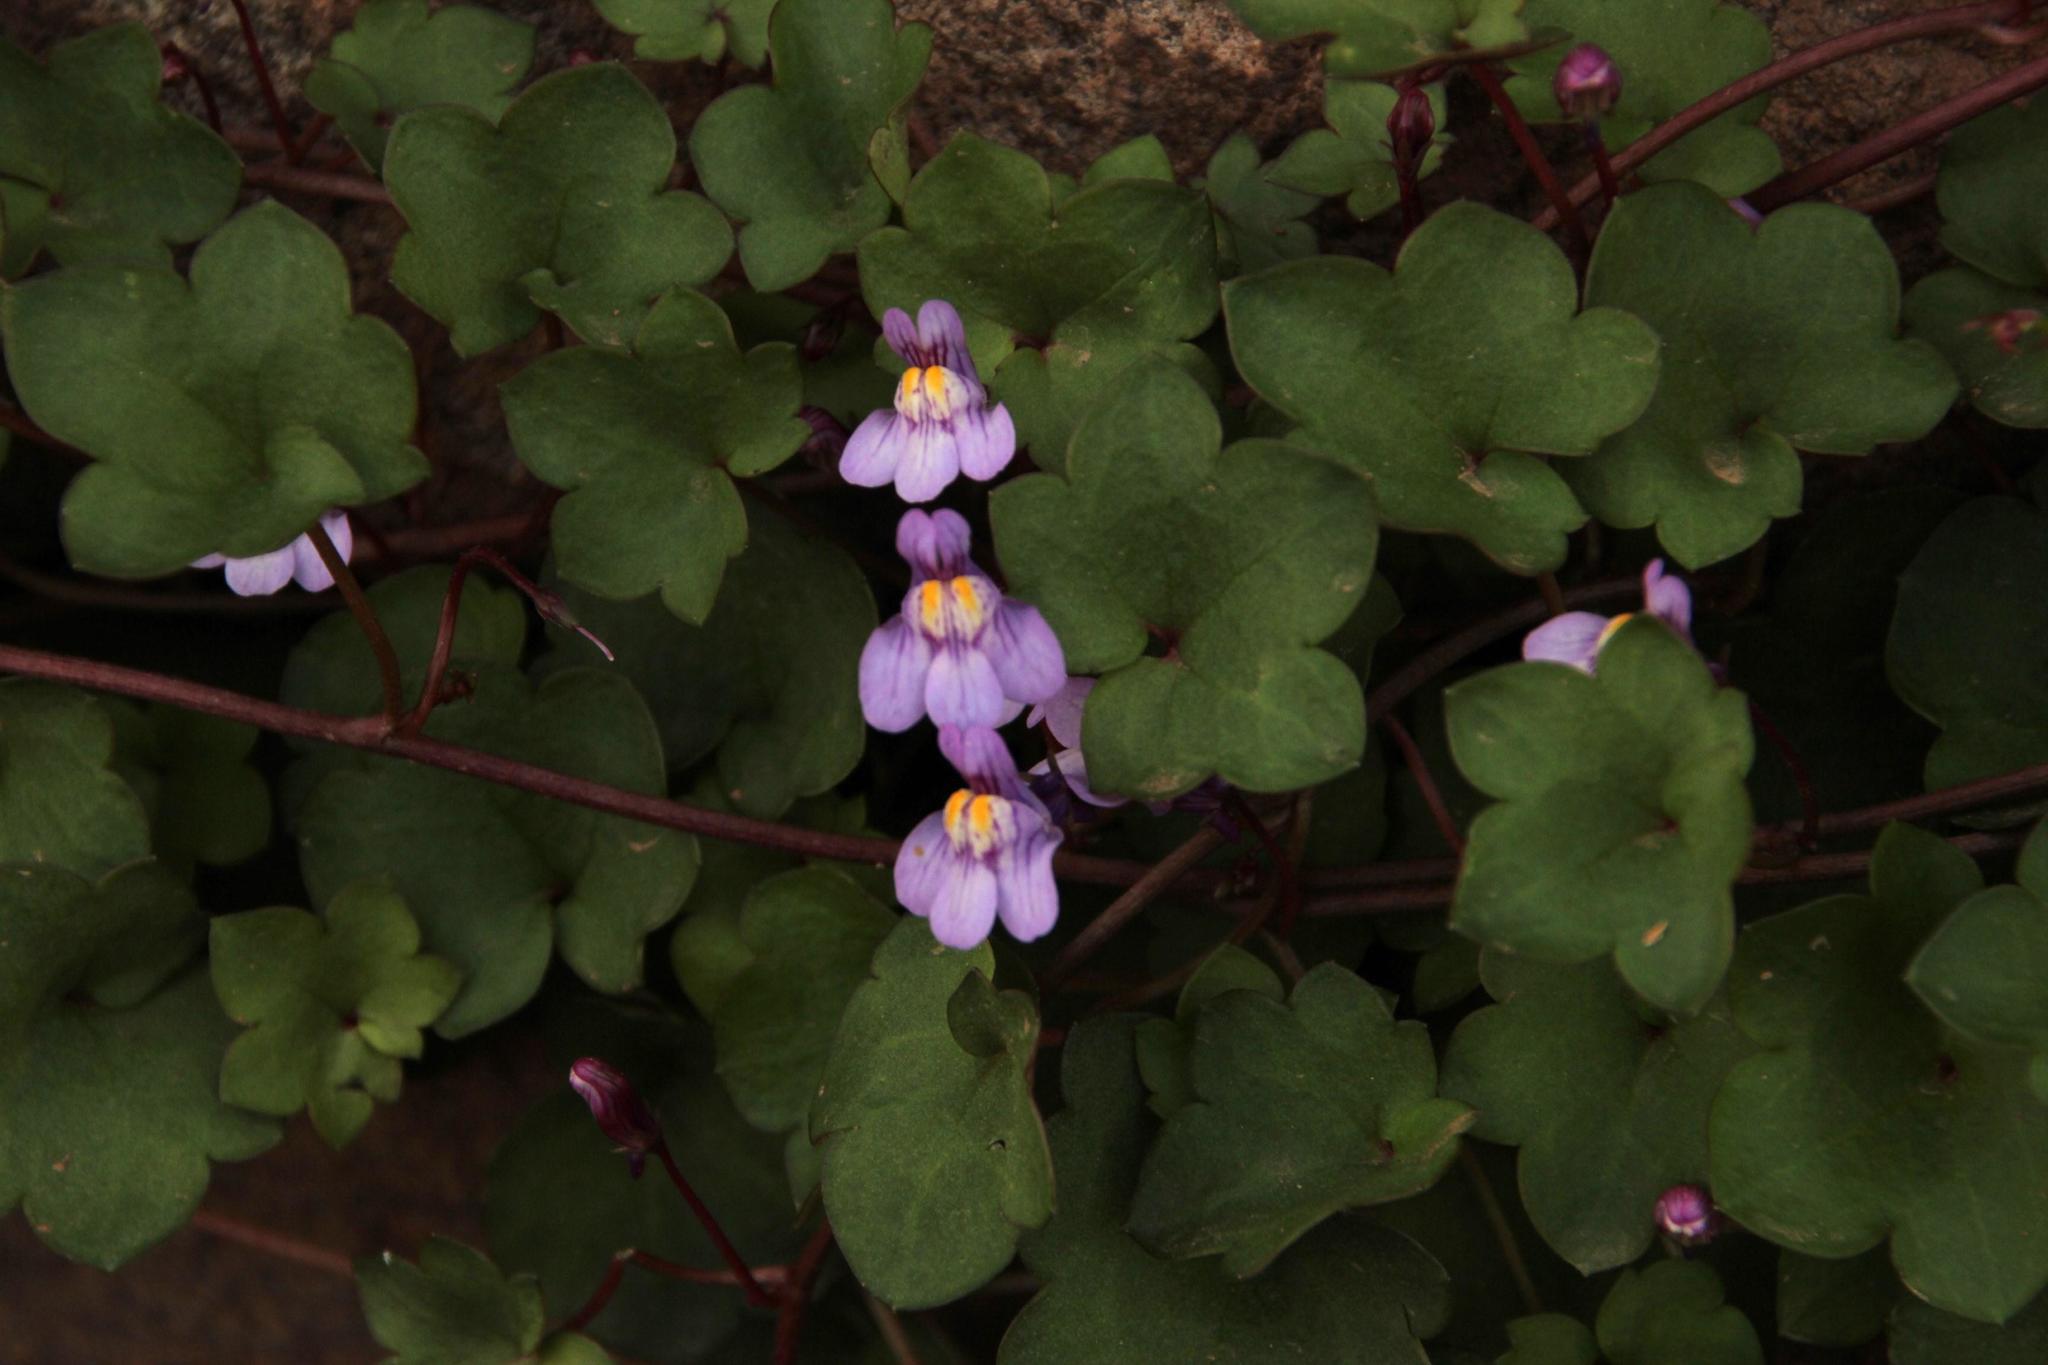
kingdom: Plantae
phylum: Tracheophyta
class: Magnoliopsida
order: Lamiales
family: Plantaginaceae
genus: Cymbalaria
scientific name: Cymbalaria muralis
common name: Ivy-leaved toadflax
